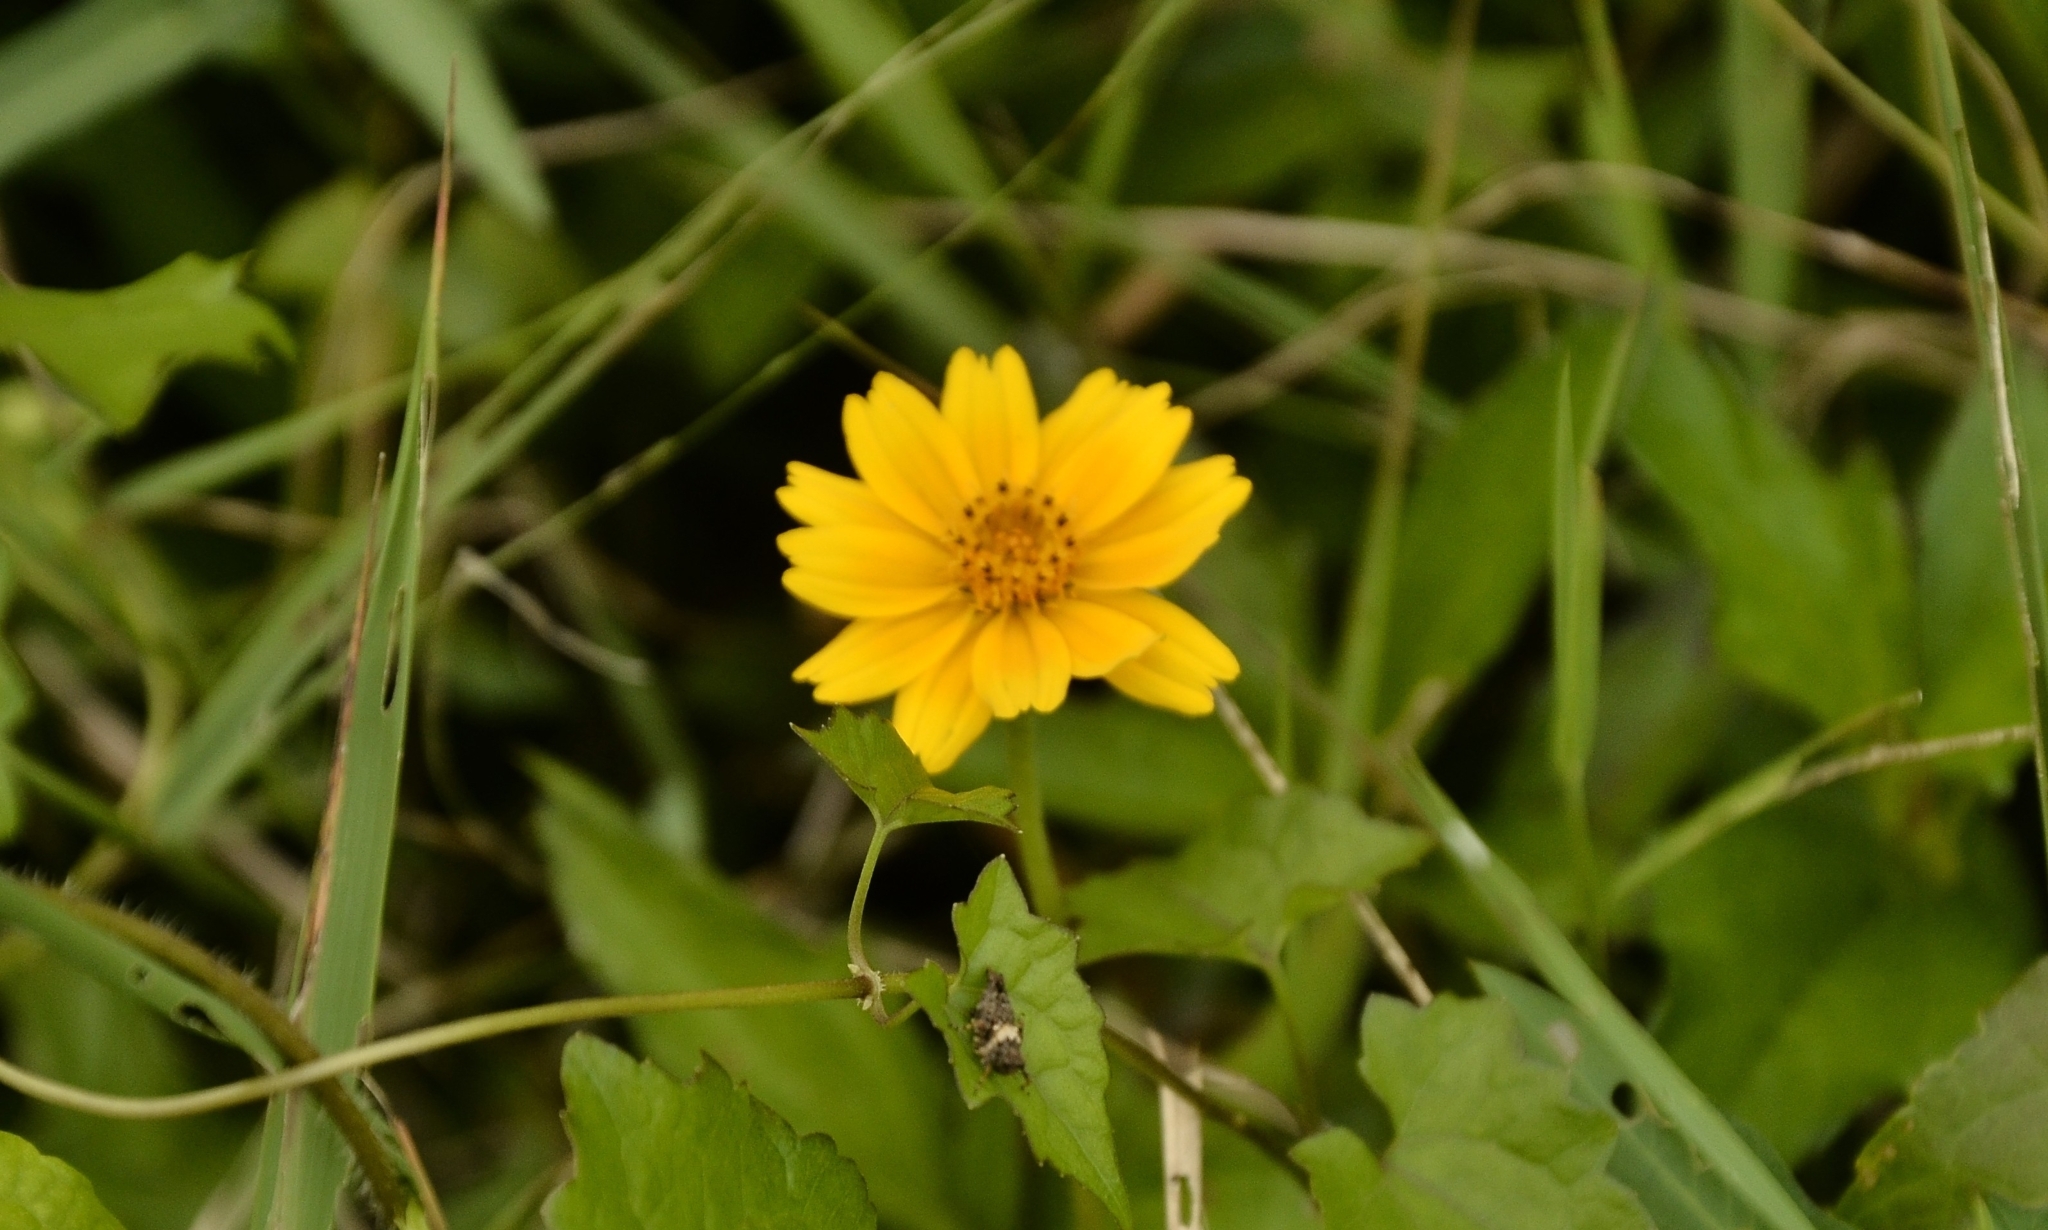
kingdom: Plantae
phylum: Tracheophyta
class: Magnoliopsida
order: Asterales
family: Asteraceae
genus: Sphagneticola
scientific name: Sphagneticola trilobata
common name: Bay biscayne creeping-oxeye
